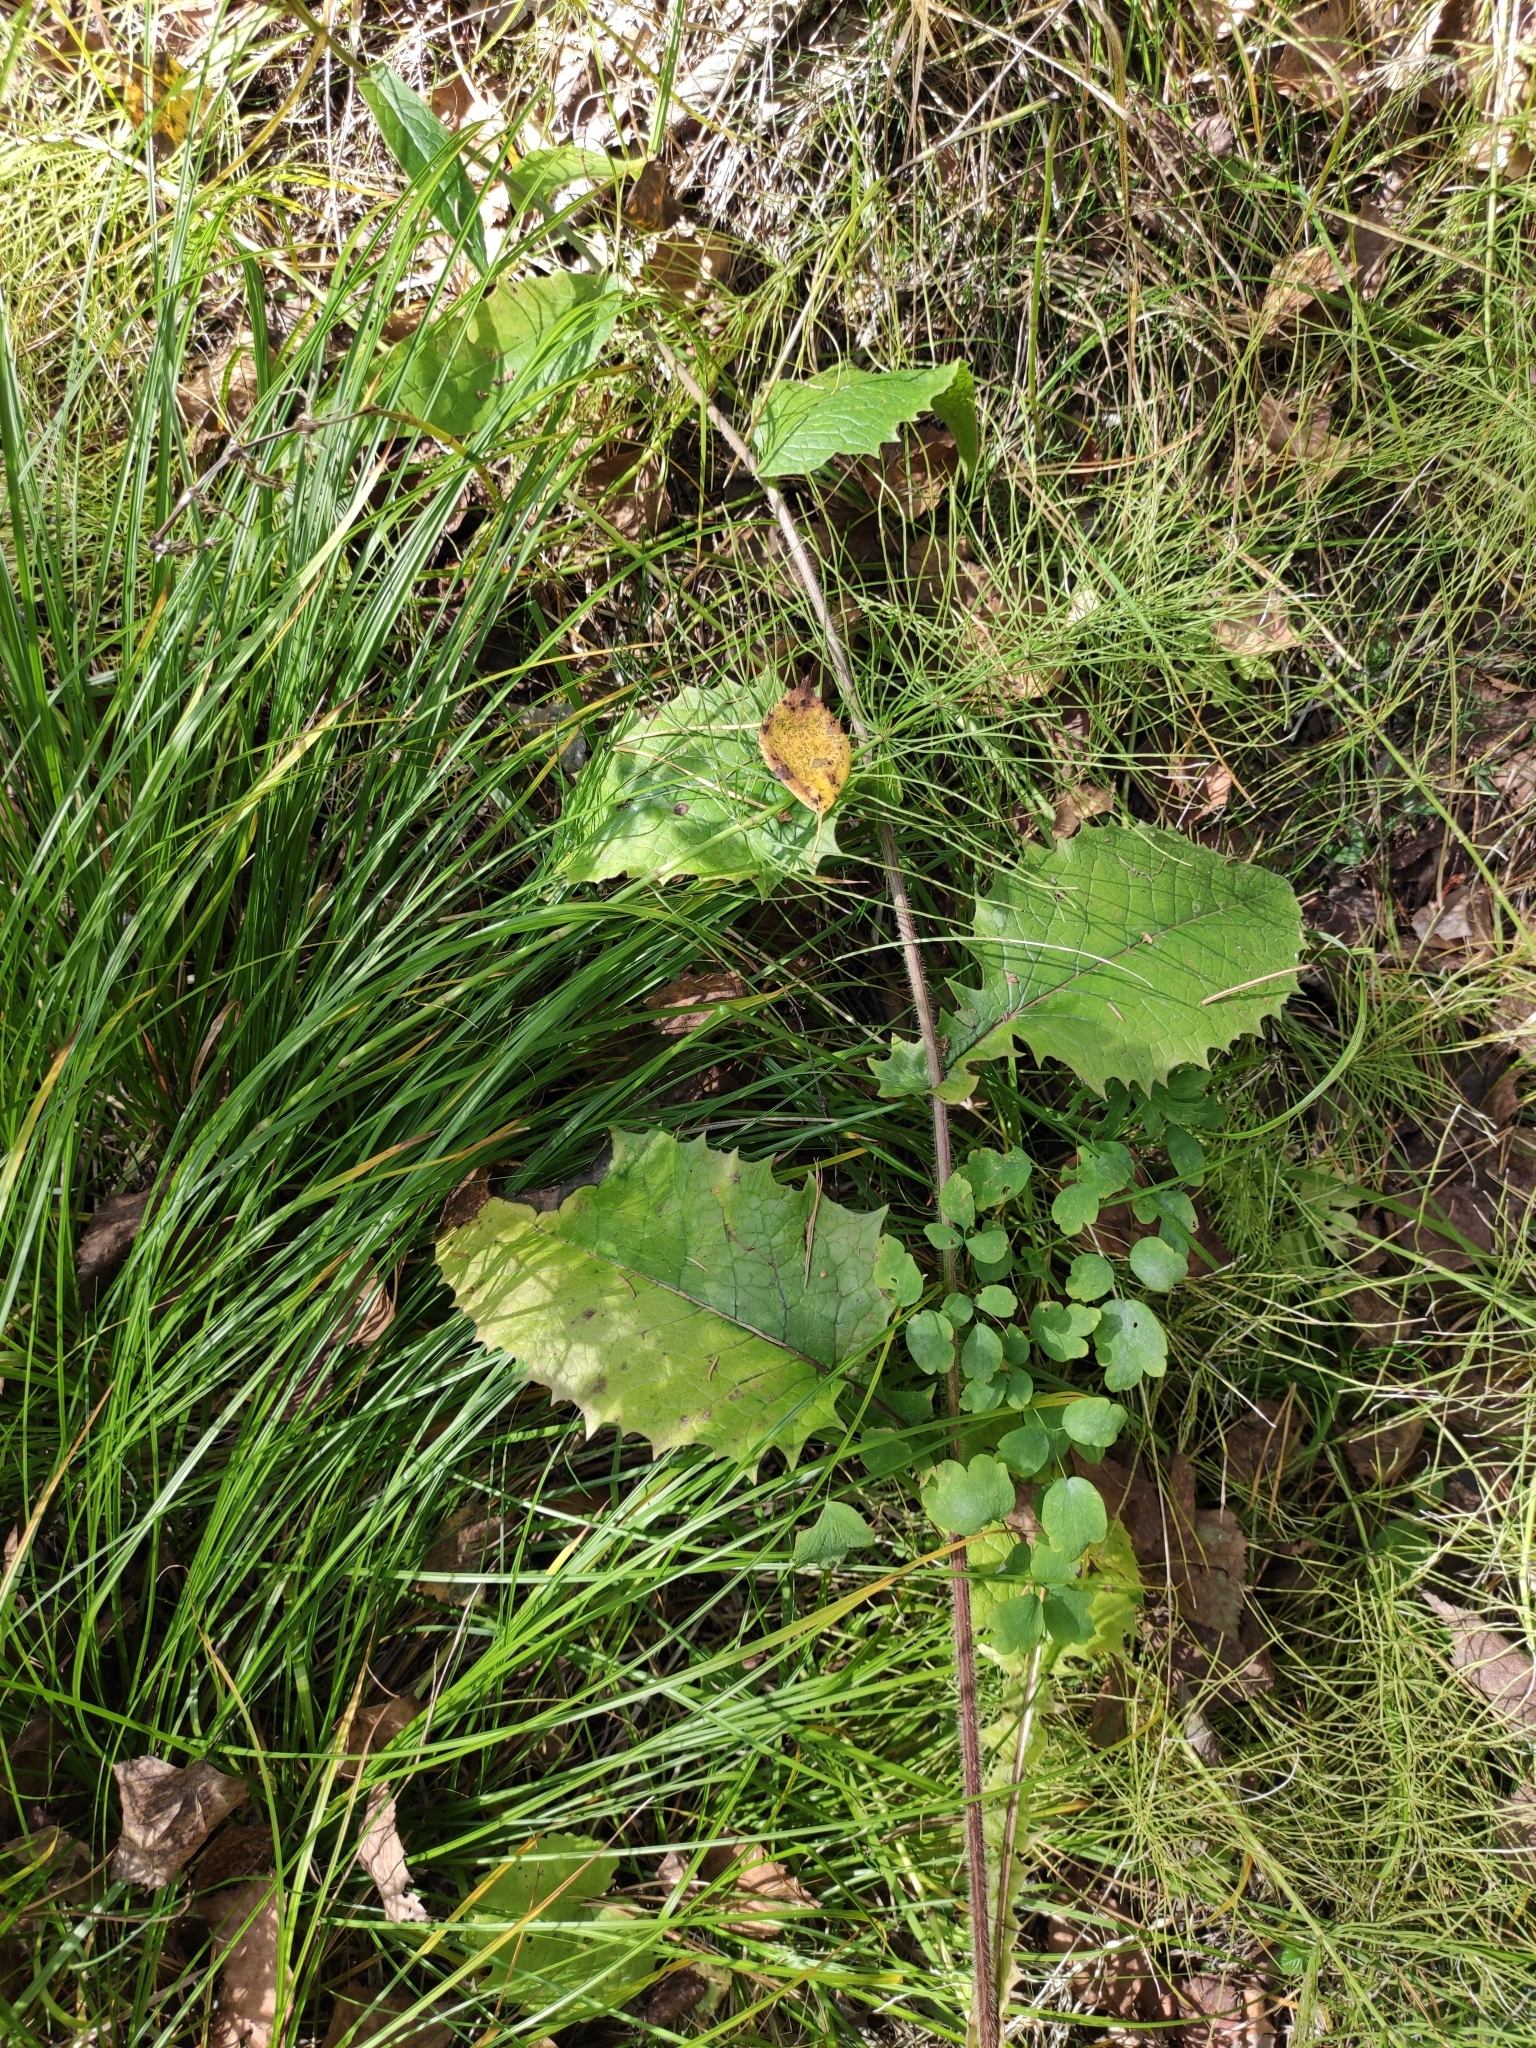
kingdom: Plantae
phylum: Tracheophyta
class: Magnoliopsida
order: Asterales
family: Asteraceae
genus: Crepis
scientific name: Crepis sibirica
